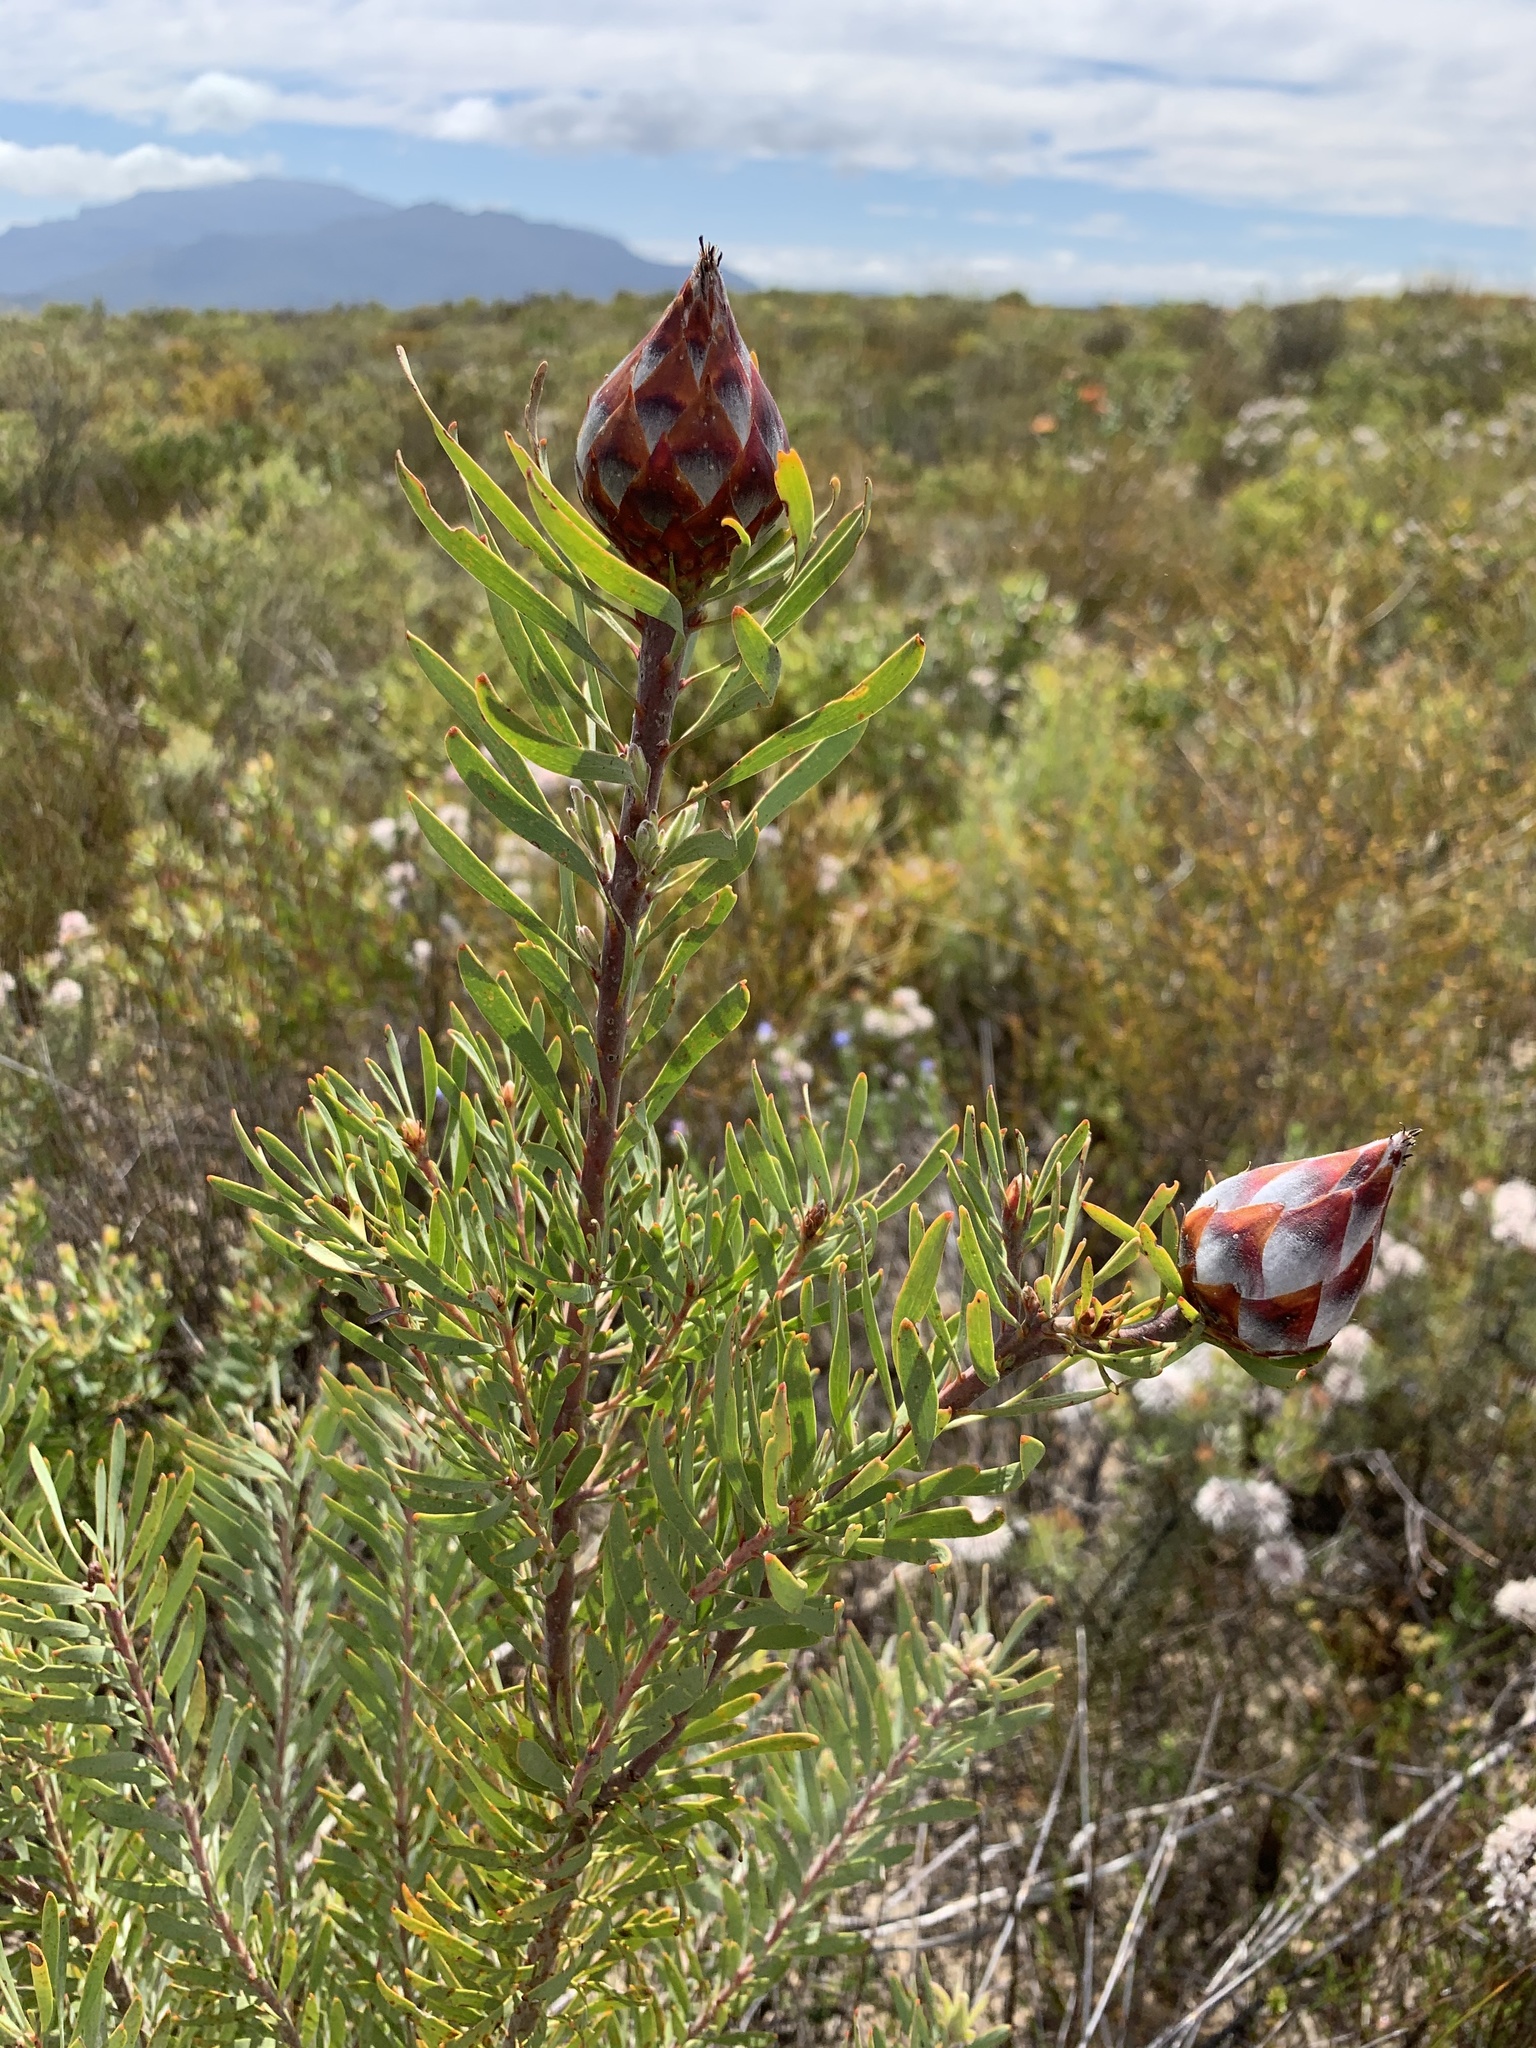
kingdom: Plantae
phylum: Tracheophyta
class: Magnoliopsida
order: Proteales
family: Proteaceae
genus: Leucadendron
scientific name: Leucadendron rubrum
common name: Spinning top
